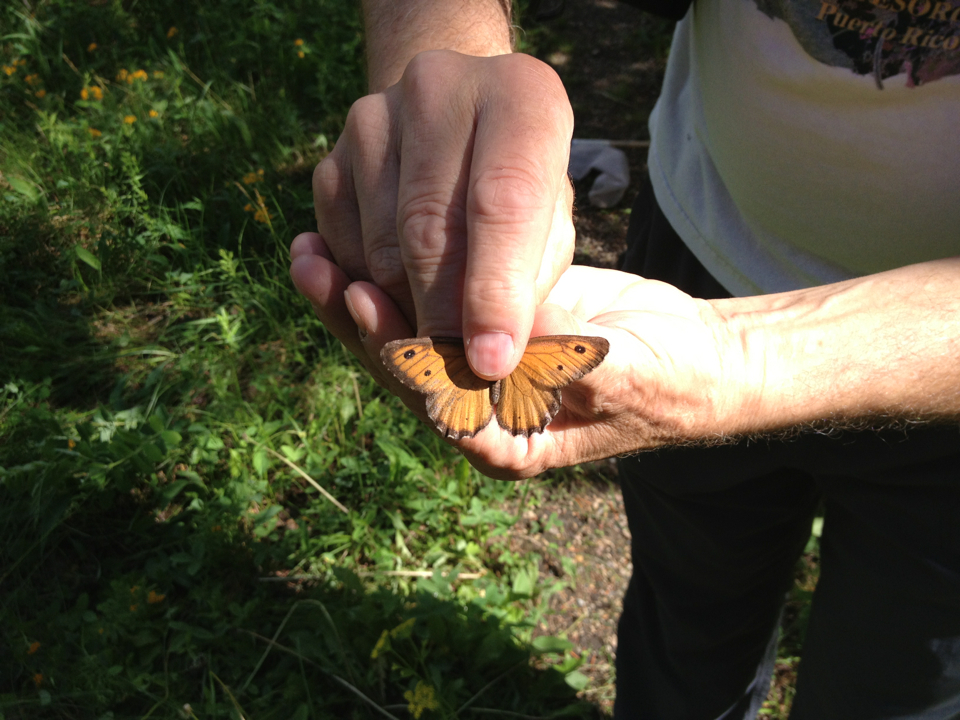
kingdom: Animalia
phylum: Arthropoda
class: Insecta
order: Lepidoptera
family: Nymphalidae
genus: Oeneis
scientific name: Oeneis macounii
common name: Macoun's arctic
